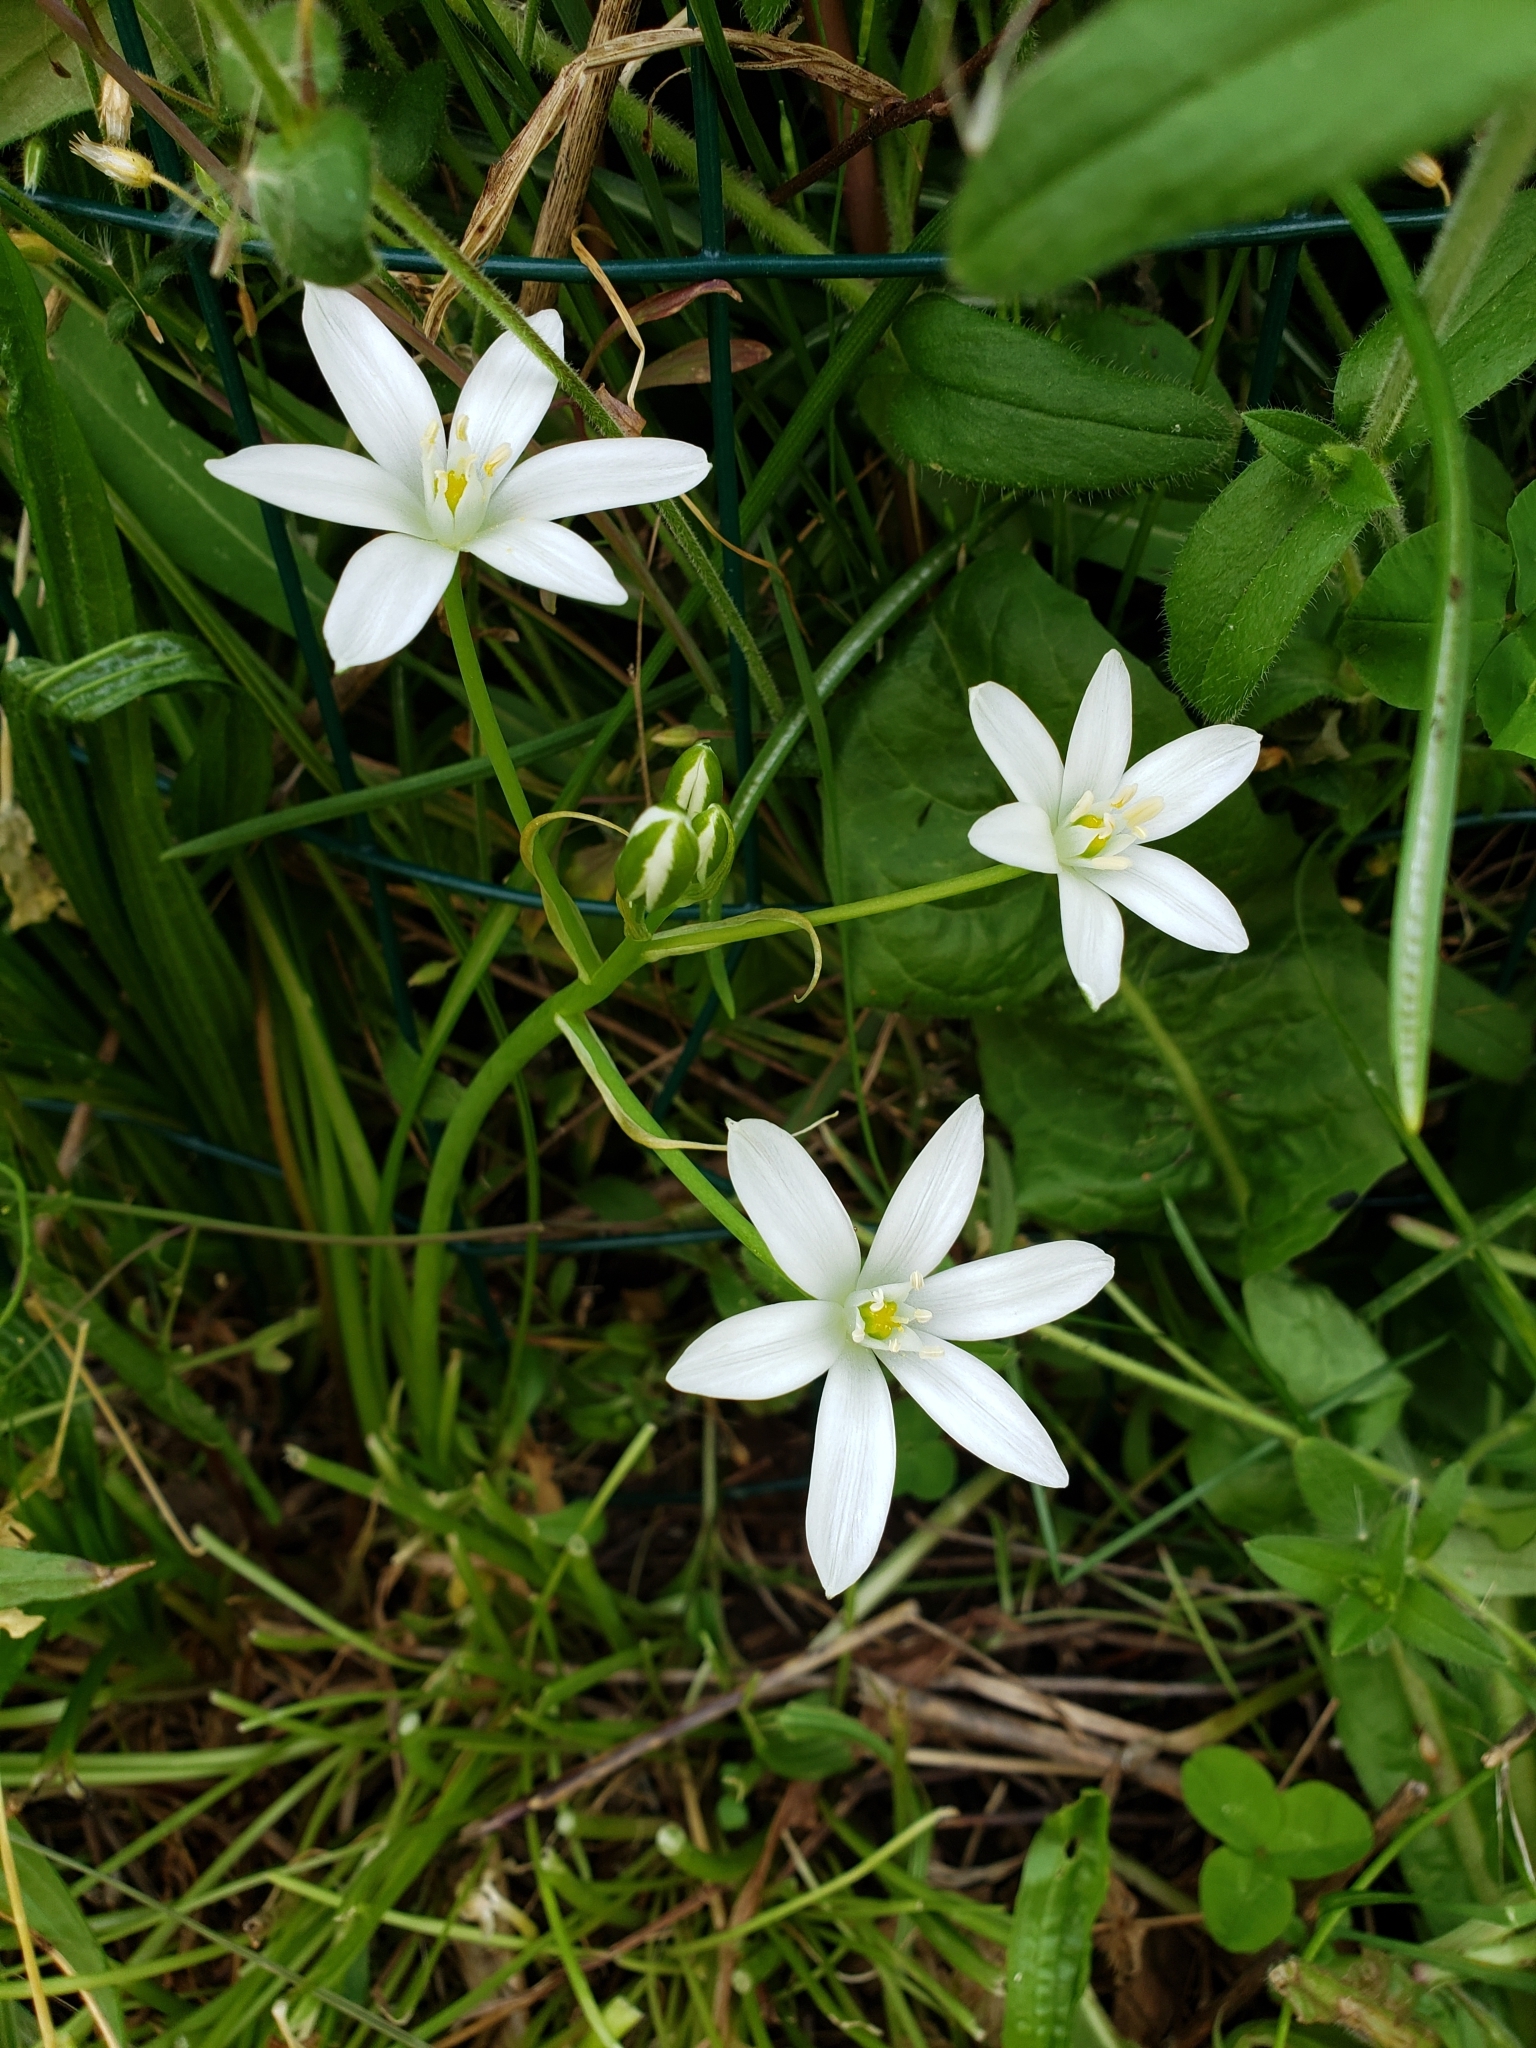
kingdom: Plantae
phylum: Tracheophyta
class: Liliopsida
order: Asparagales
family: Asparagaceae
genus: Ornithogalum
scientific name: Ornithogalum umbellatum
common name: Garden star-of-bethlehem
